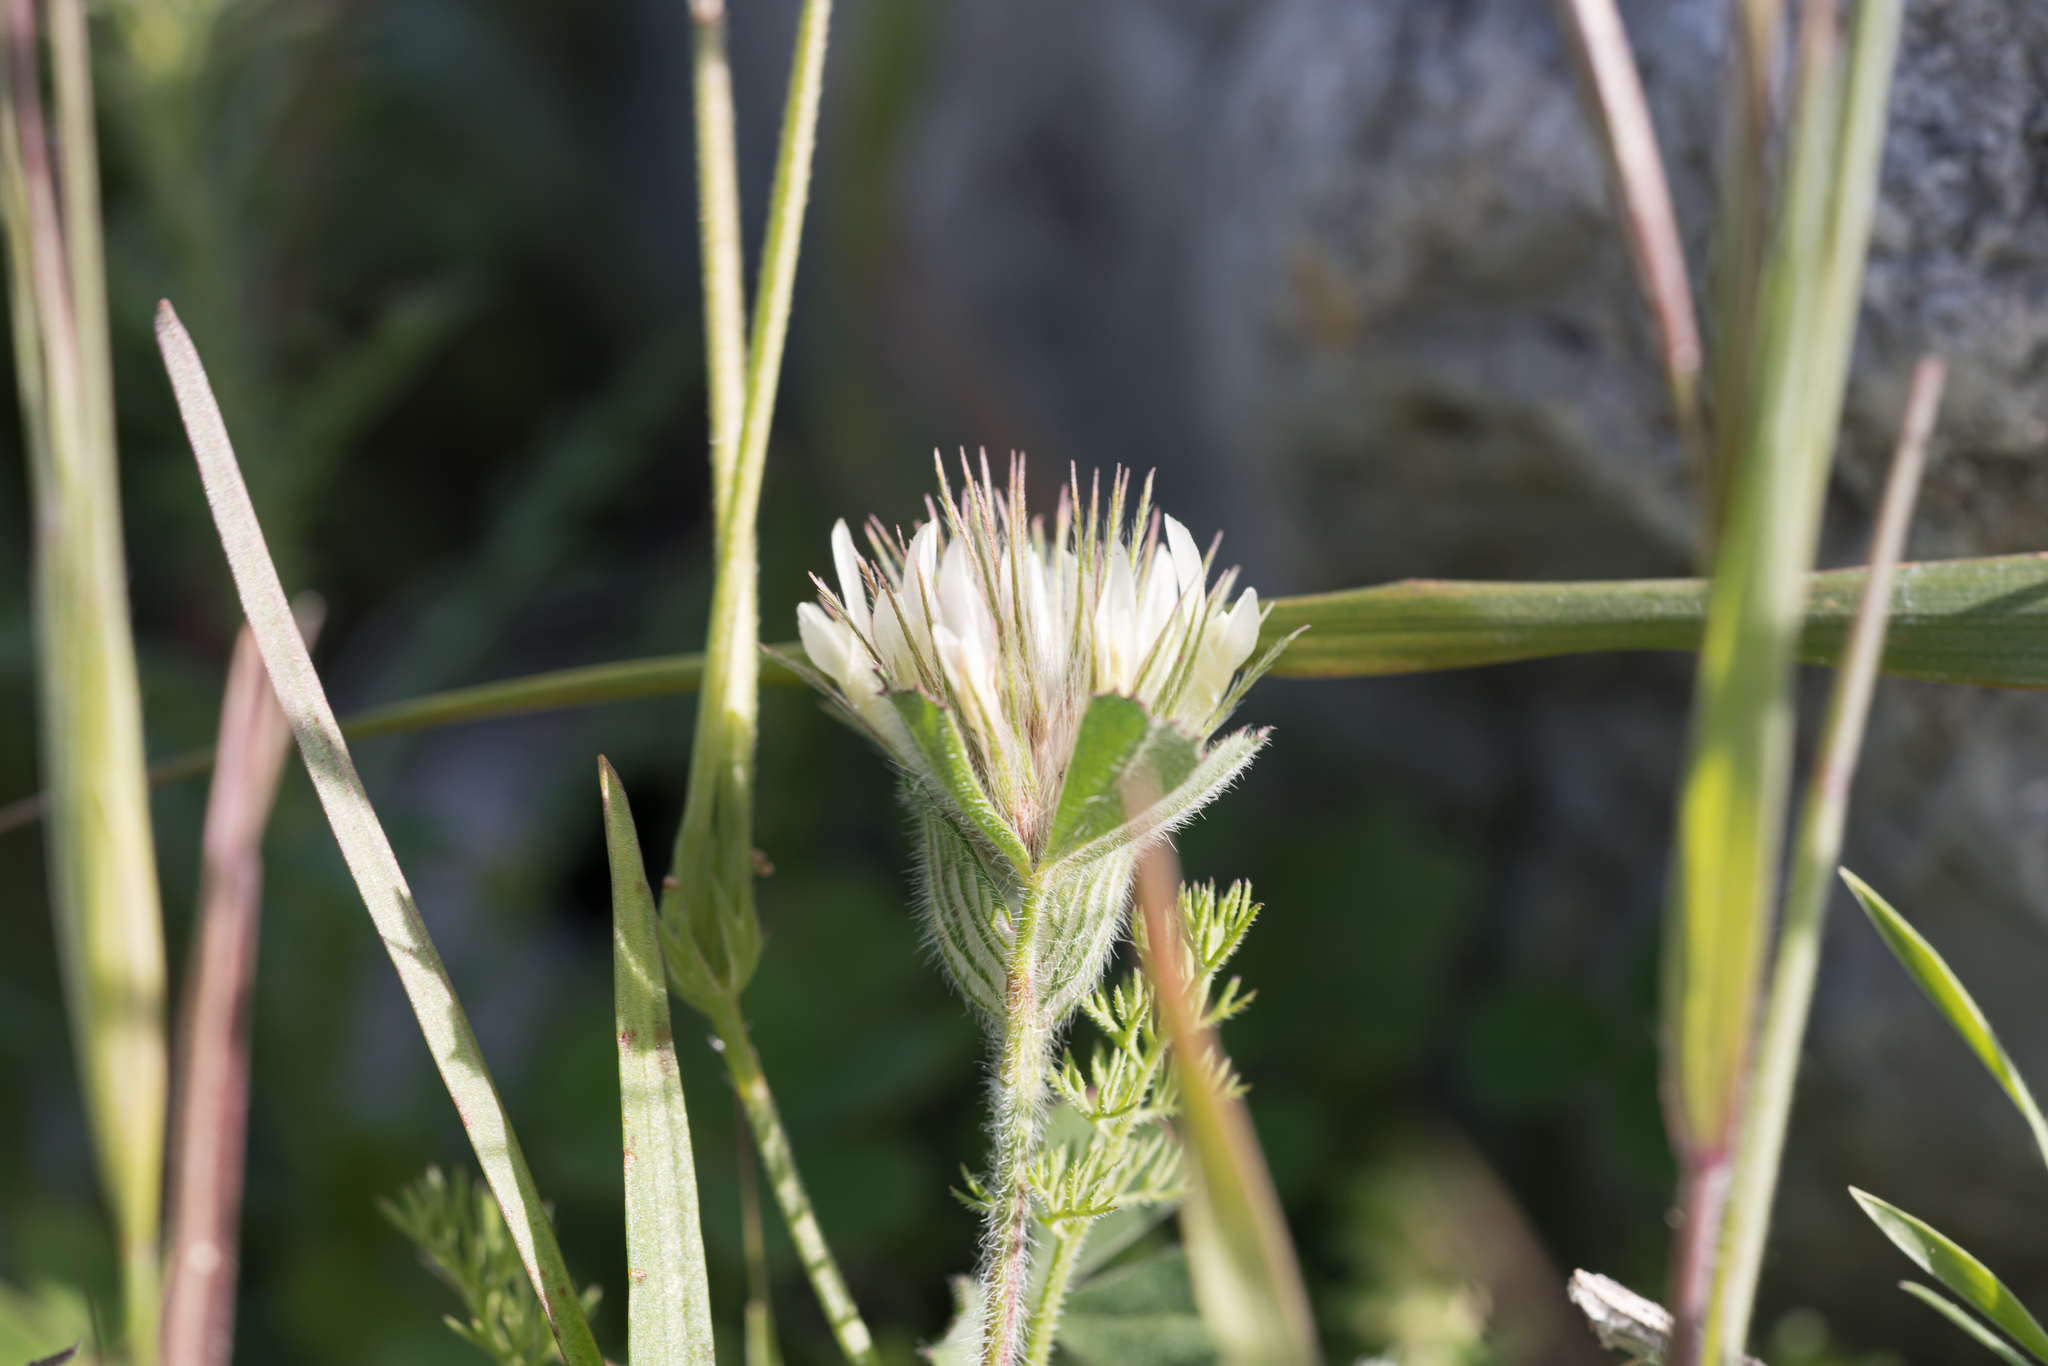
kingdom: Plantae
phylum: Tracheophyta
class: Magnoliopsida
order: Fabales
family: Fabaceae
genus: Trifolium
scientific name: Trifolium stellatum
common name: Starry clover
